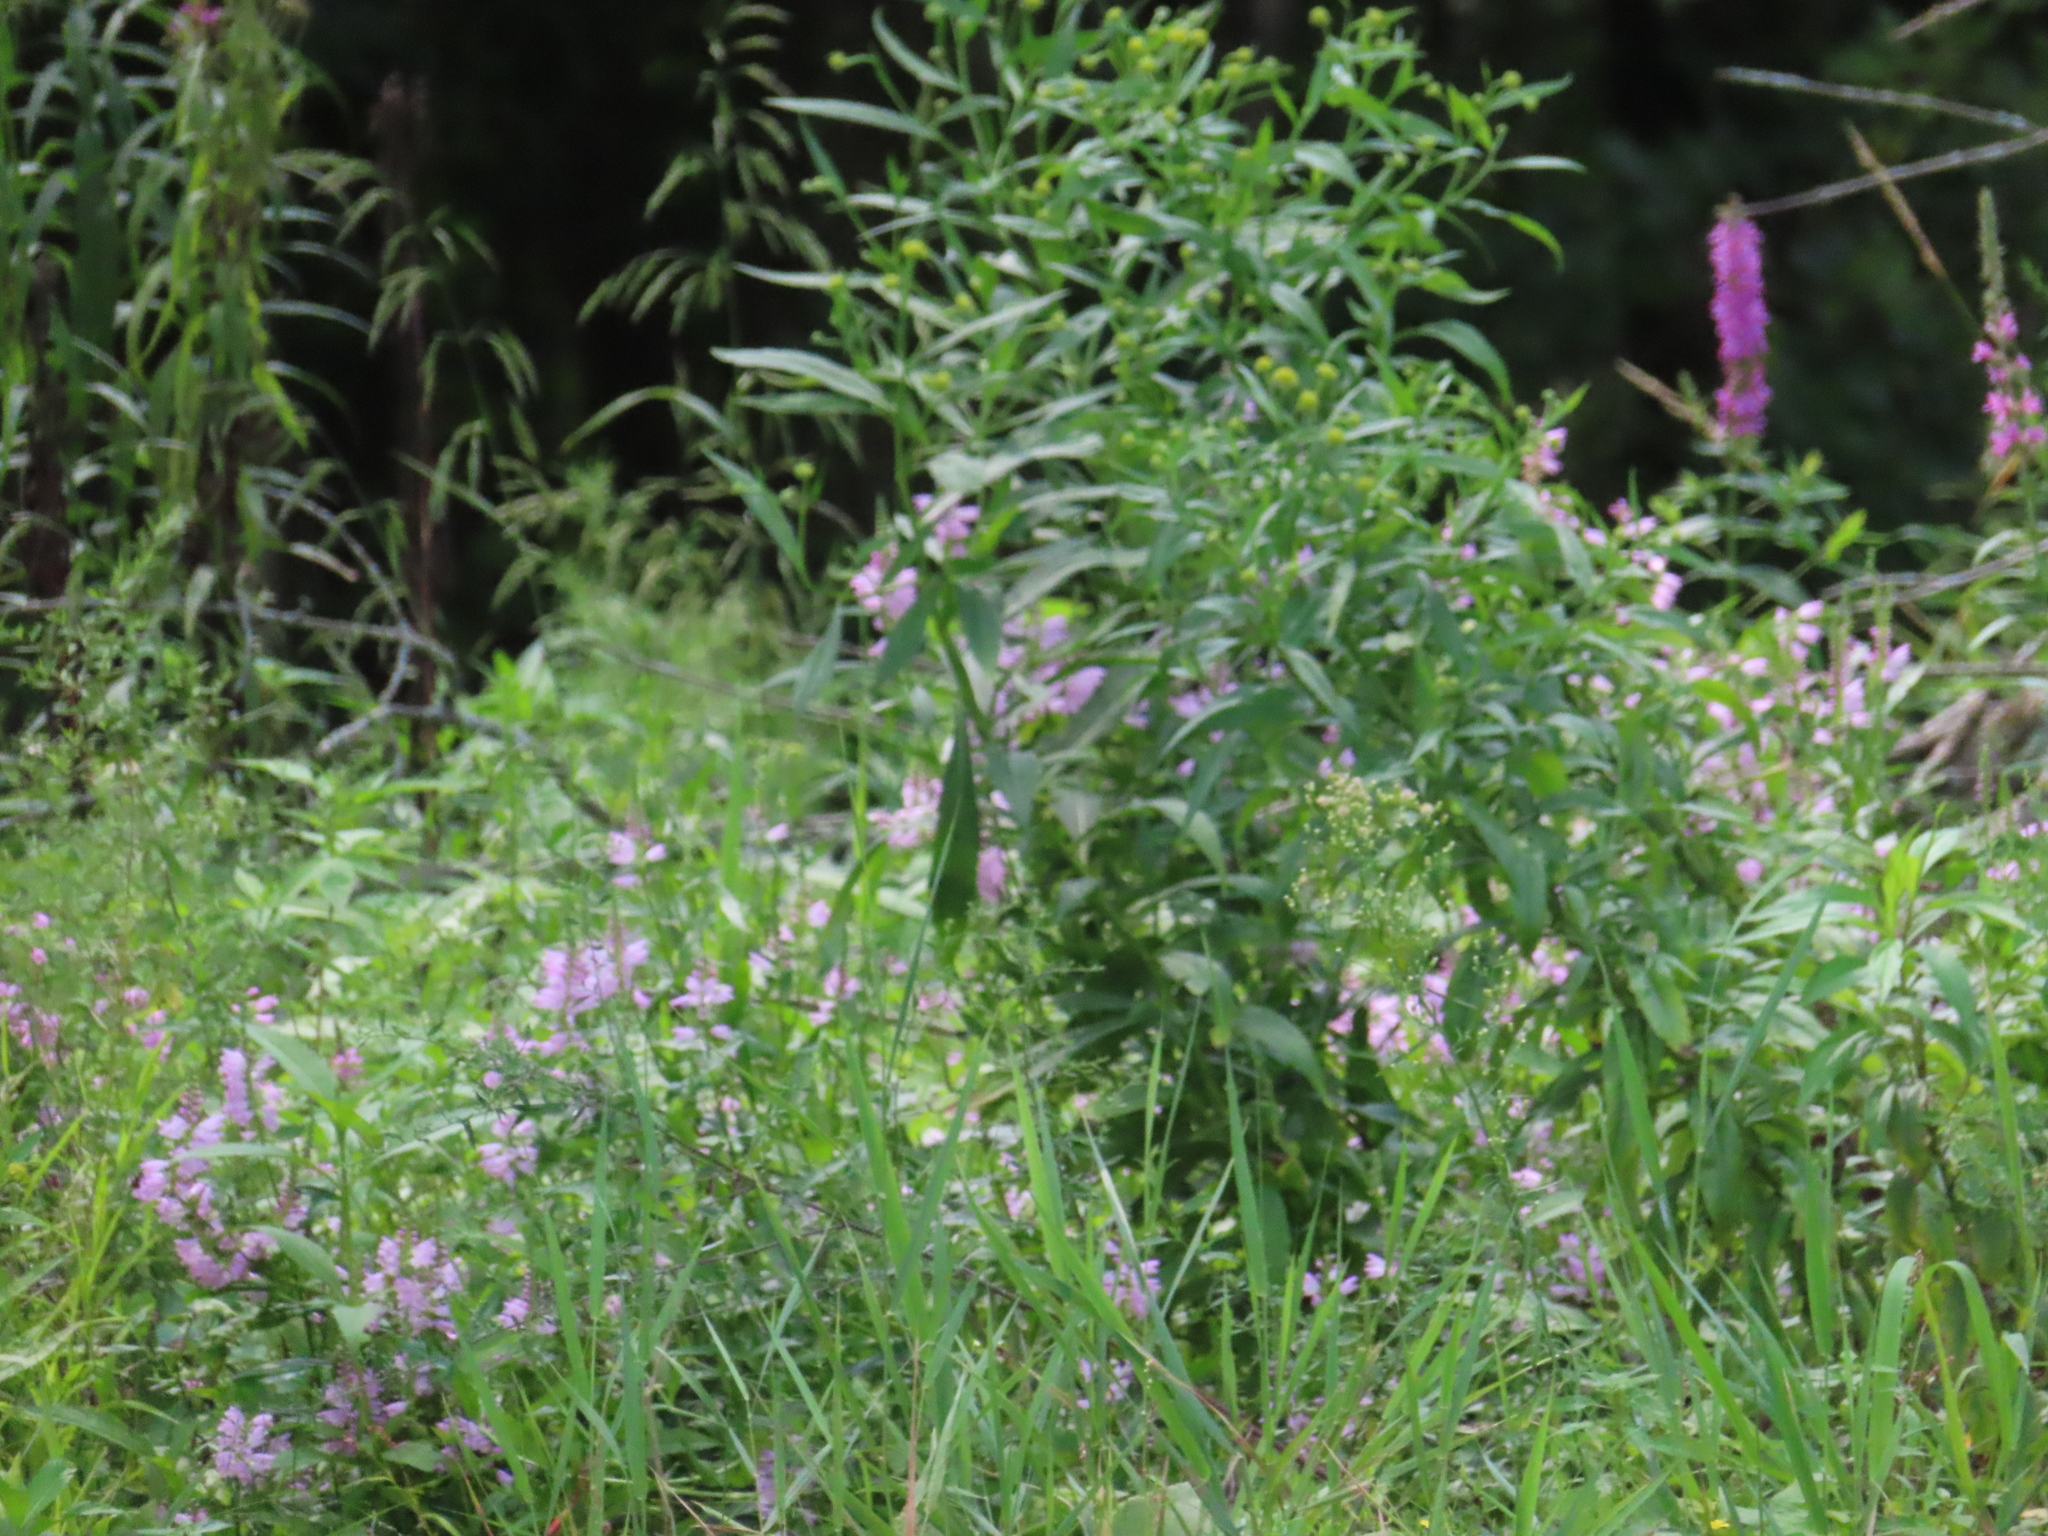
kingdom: Plantae
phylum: Tracheophyta
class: Magnoliopsida
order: Myrtales
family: Lythraceae
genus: Lythrum
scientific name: Lythrum salicaria
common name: Purple loosestrife
